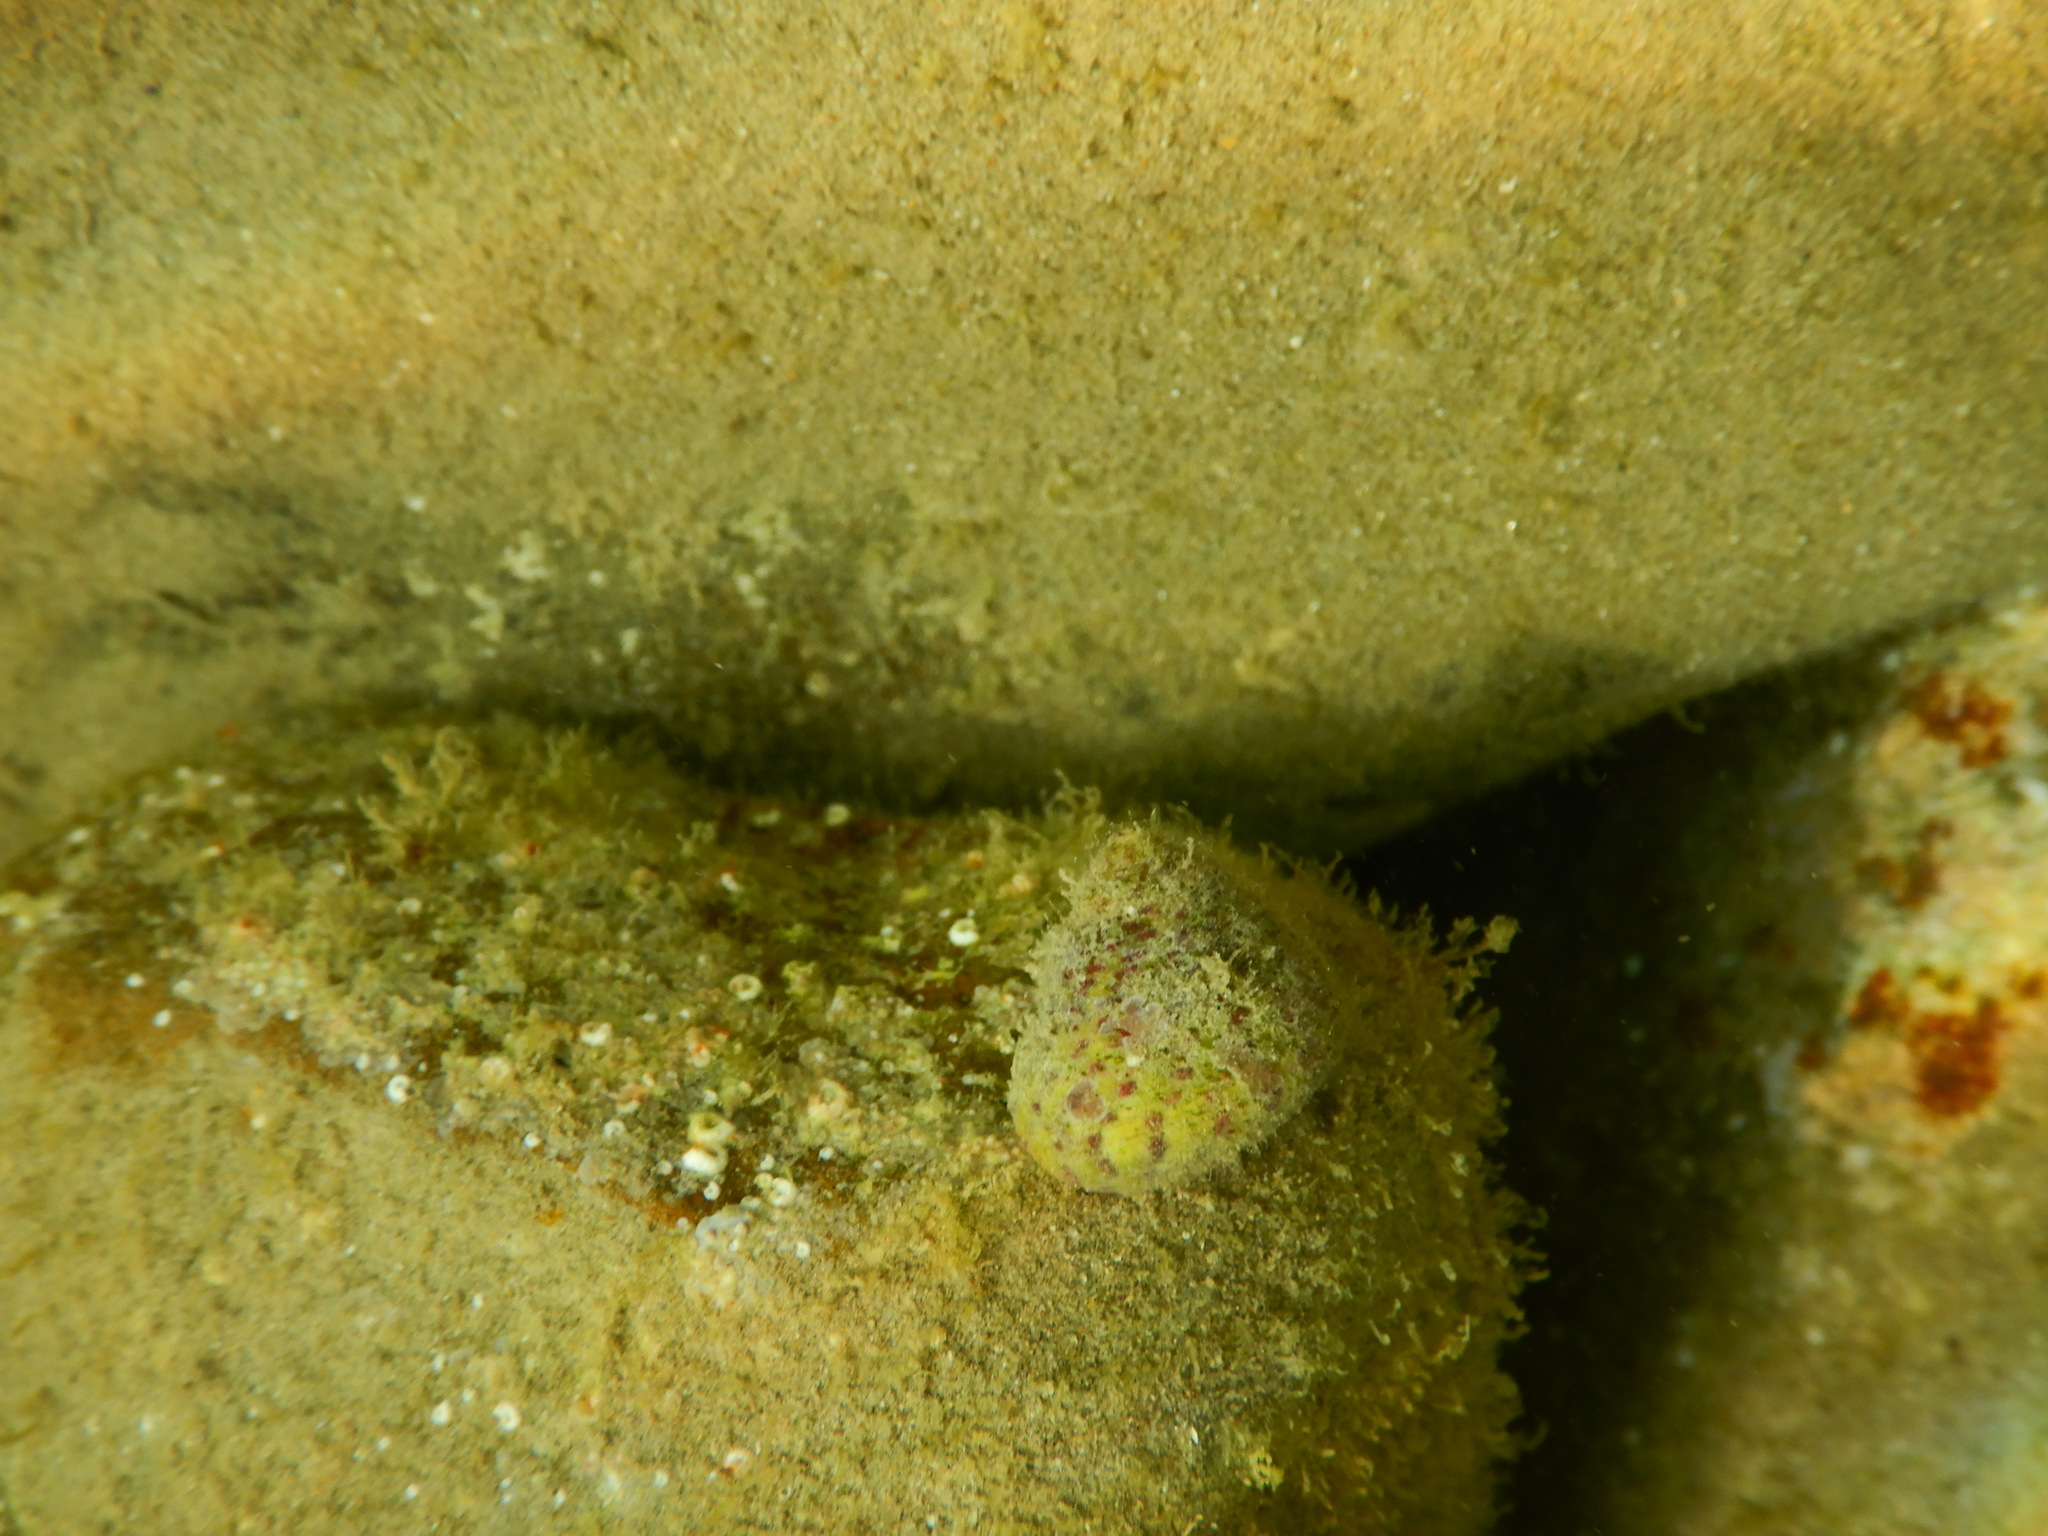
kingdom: Animalia
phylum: Mollusca
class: Gastropoda
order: Trochida
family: Trochidae
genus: Steromphala
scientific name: Steromphala rarilineata
